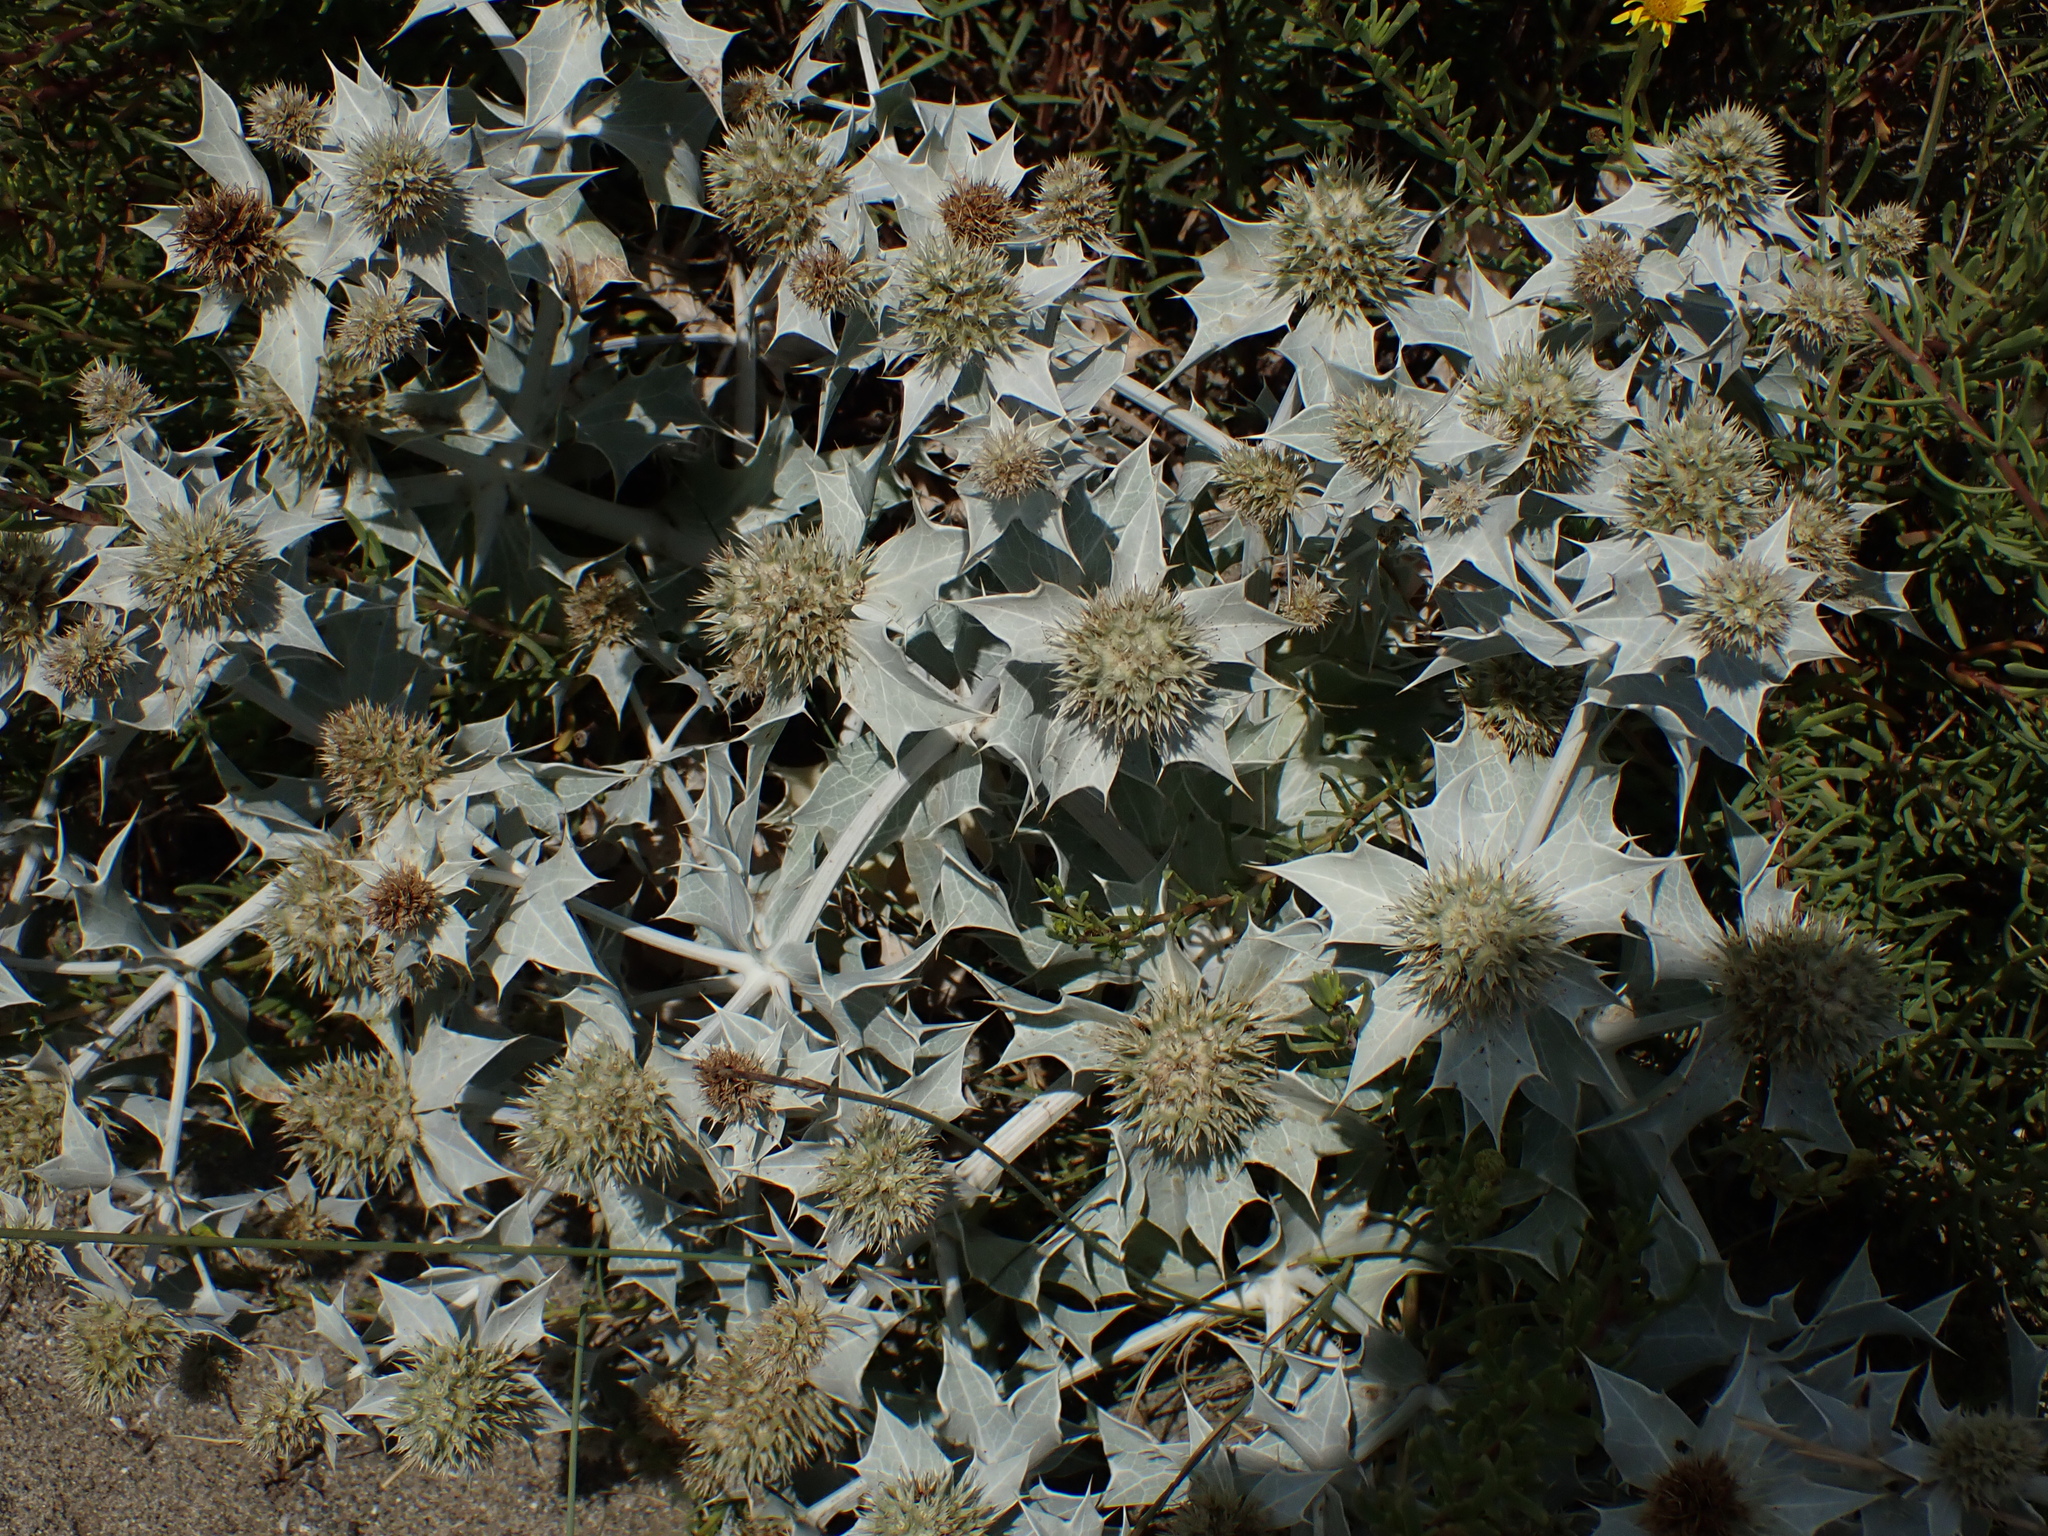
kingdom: Plantae
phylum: Tracheophyta
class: Magnoliopsida
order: Apiales
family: Apiaceae
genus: Eryngium
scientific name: Eryngium maritimum
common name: Sea-holly
